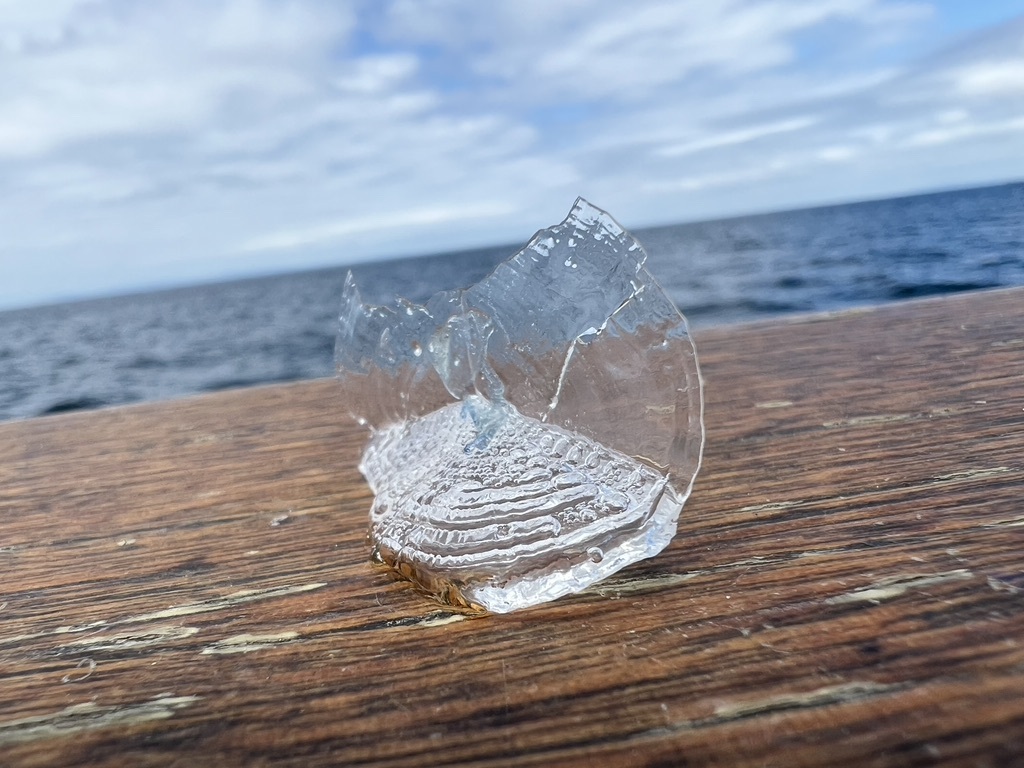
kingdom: Animalia
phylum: Cnidaria
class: Hydrozoa
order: Anthoathecata
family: Porpitidae
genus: Velella
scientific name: Velella velella
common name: By-the-wind-sailor
